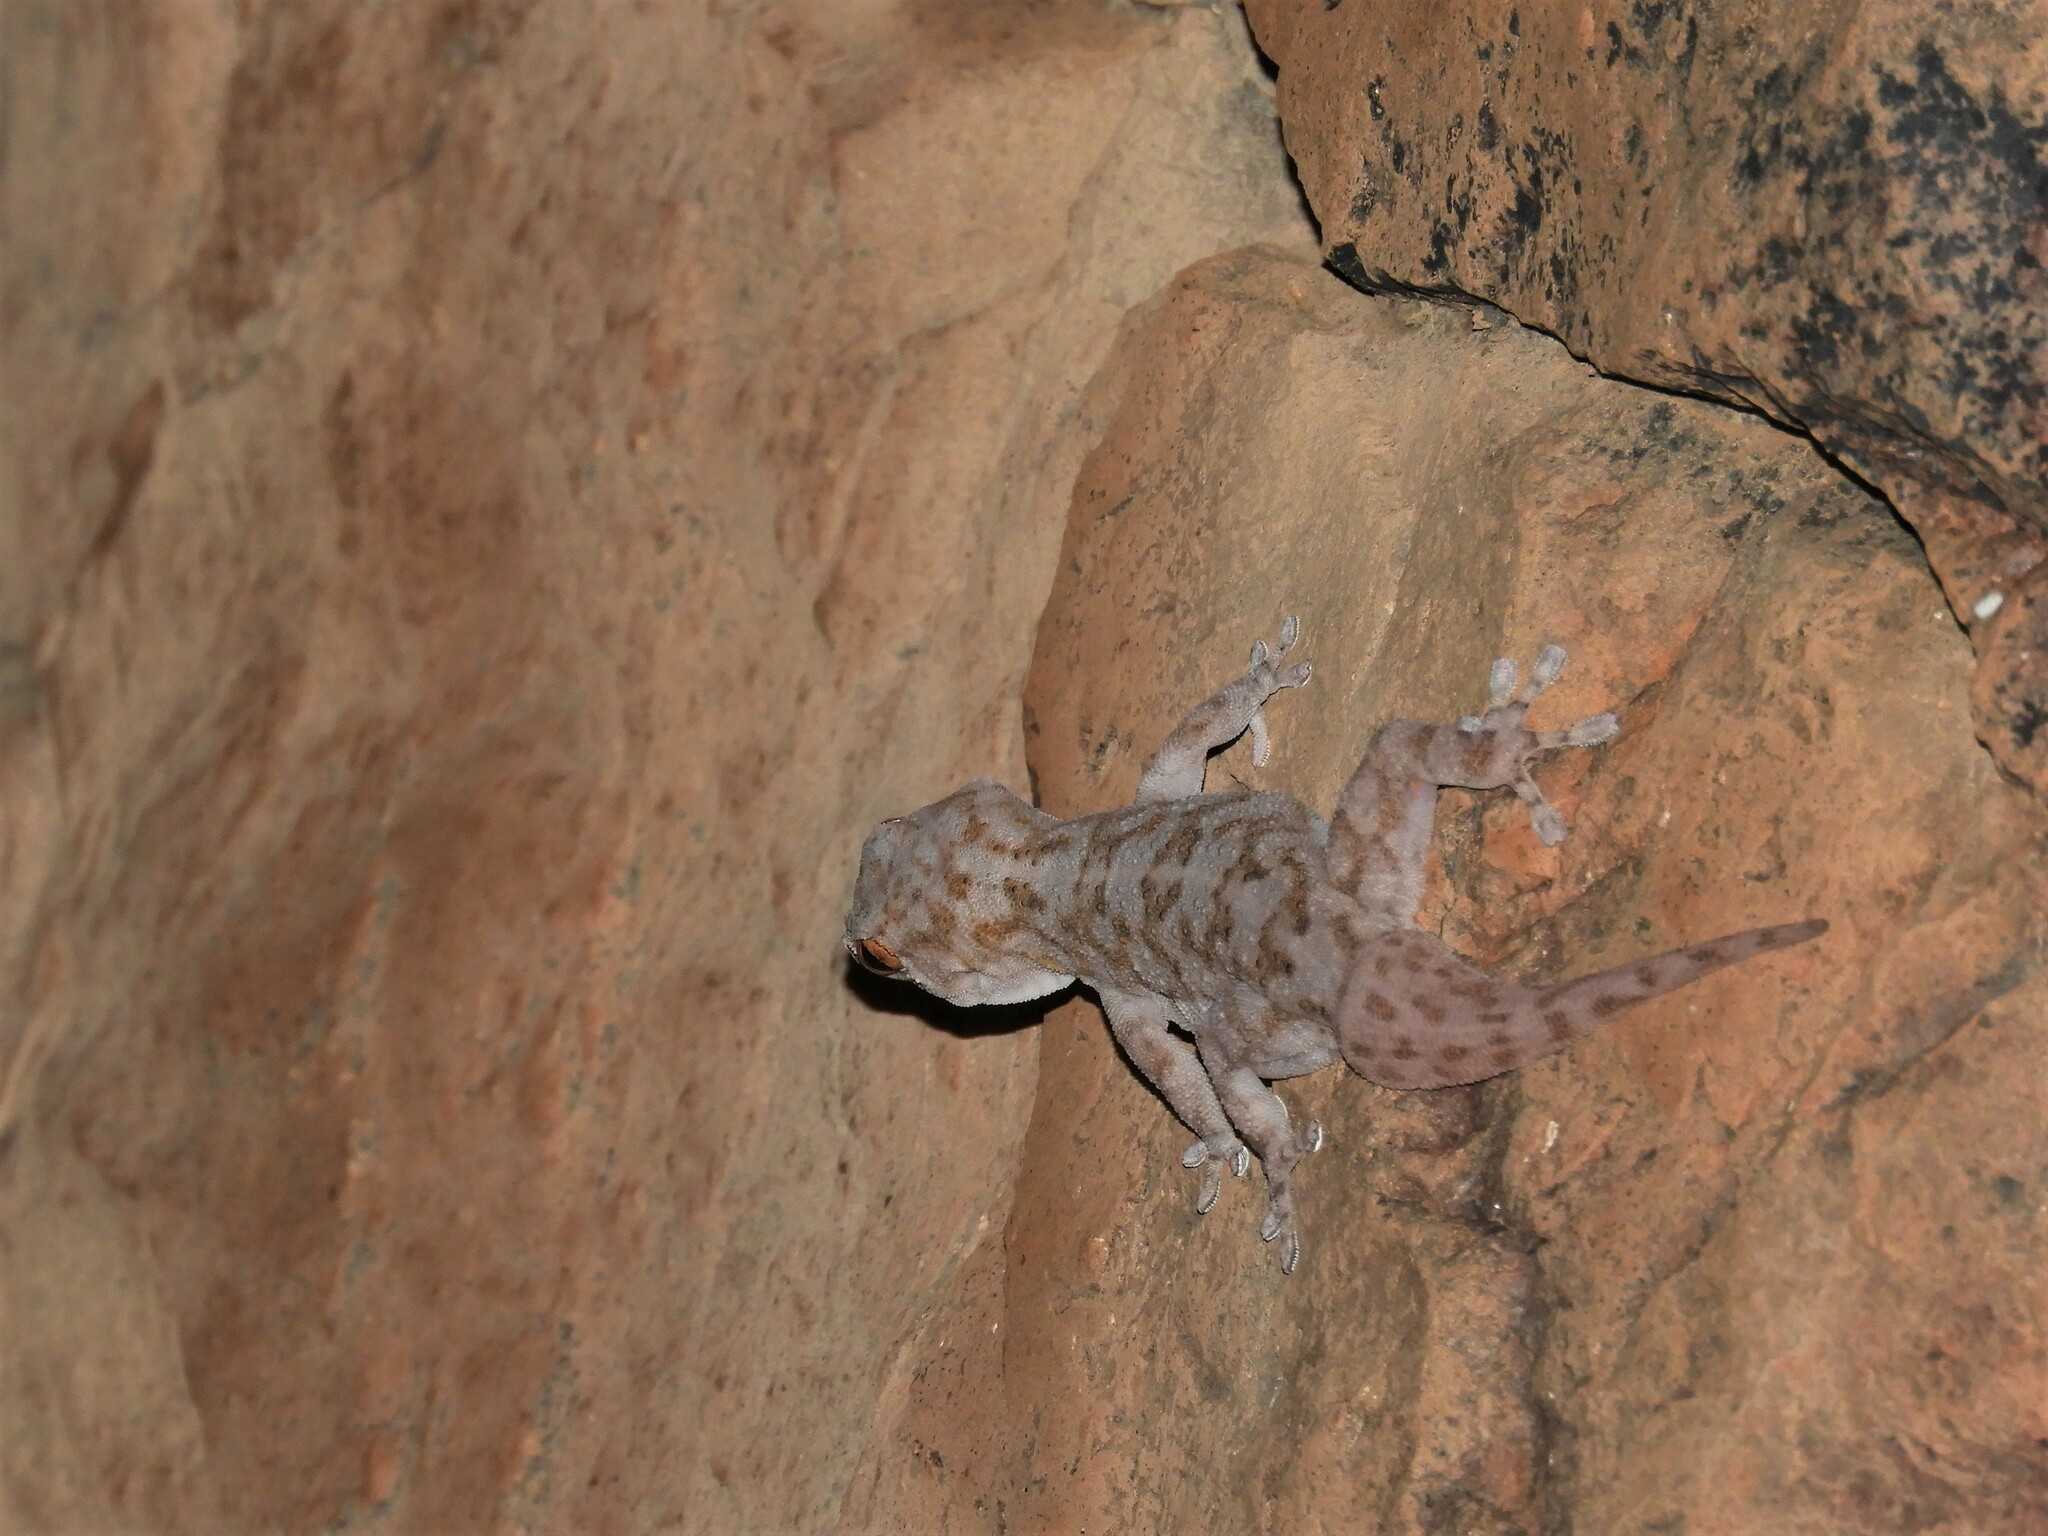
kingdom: Animalia
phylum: Chordata
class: Squamata
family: Gekkonidae
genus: Pachydactylus
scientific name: Pachydactylus haackei
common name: Haacke's gecko
